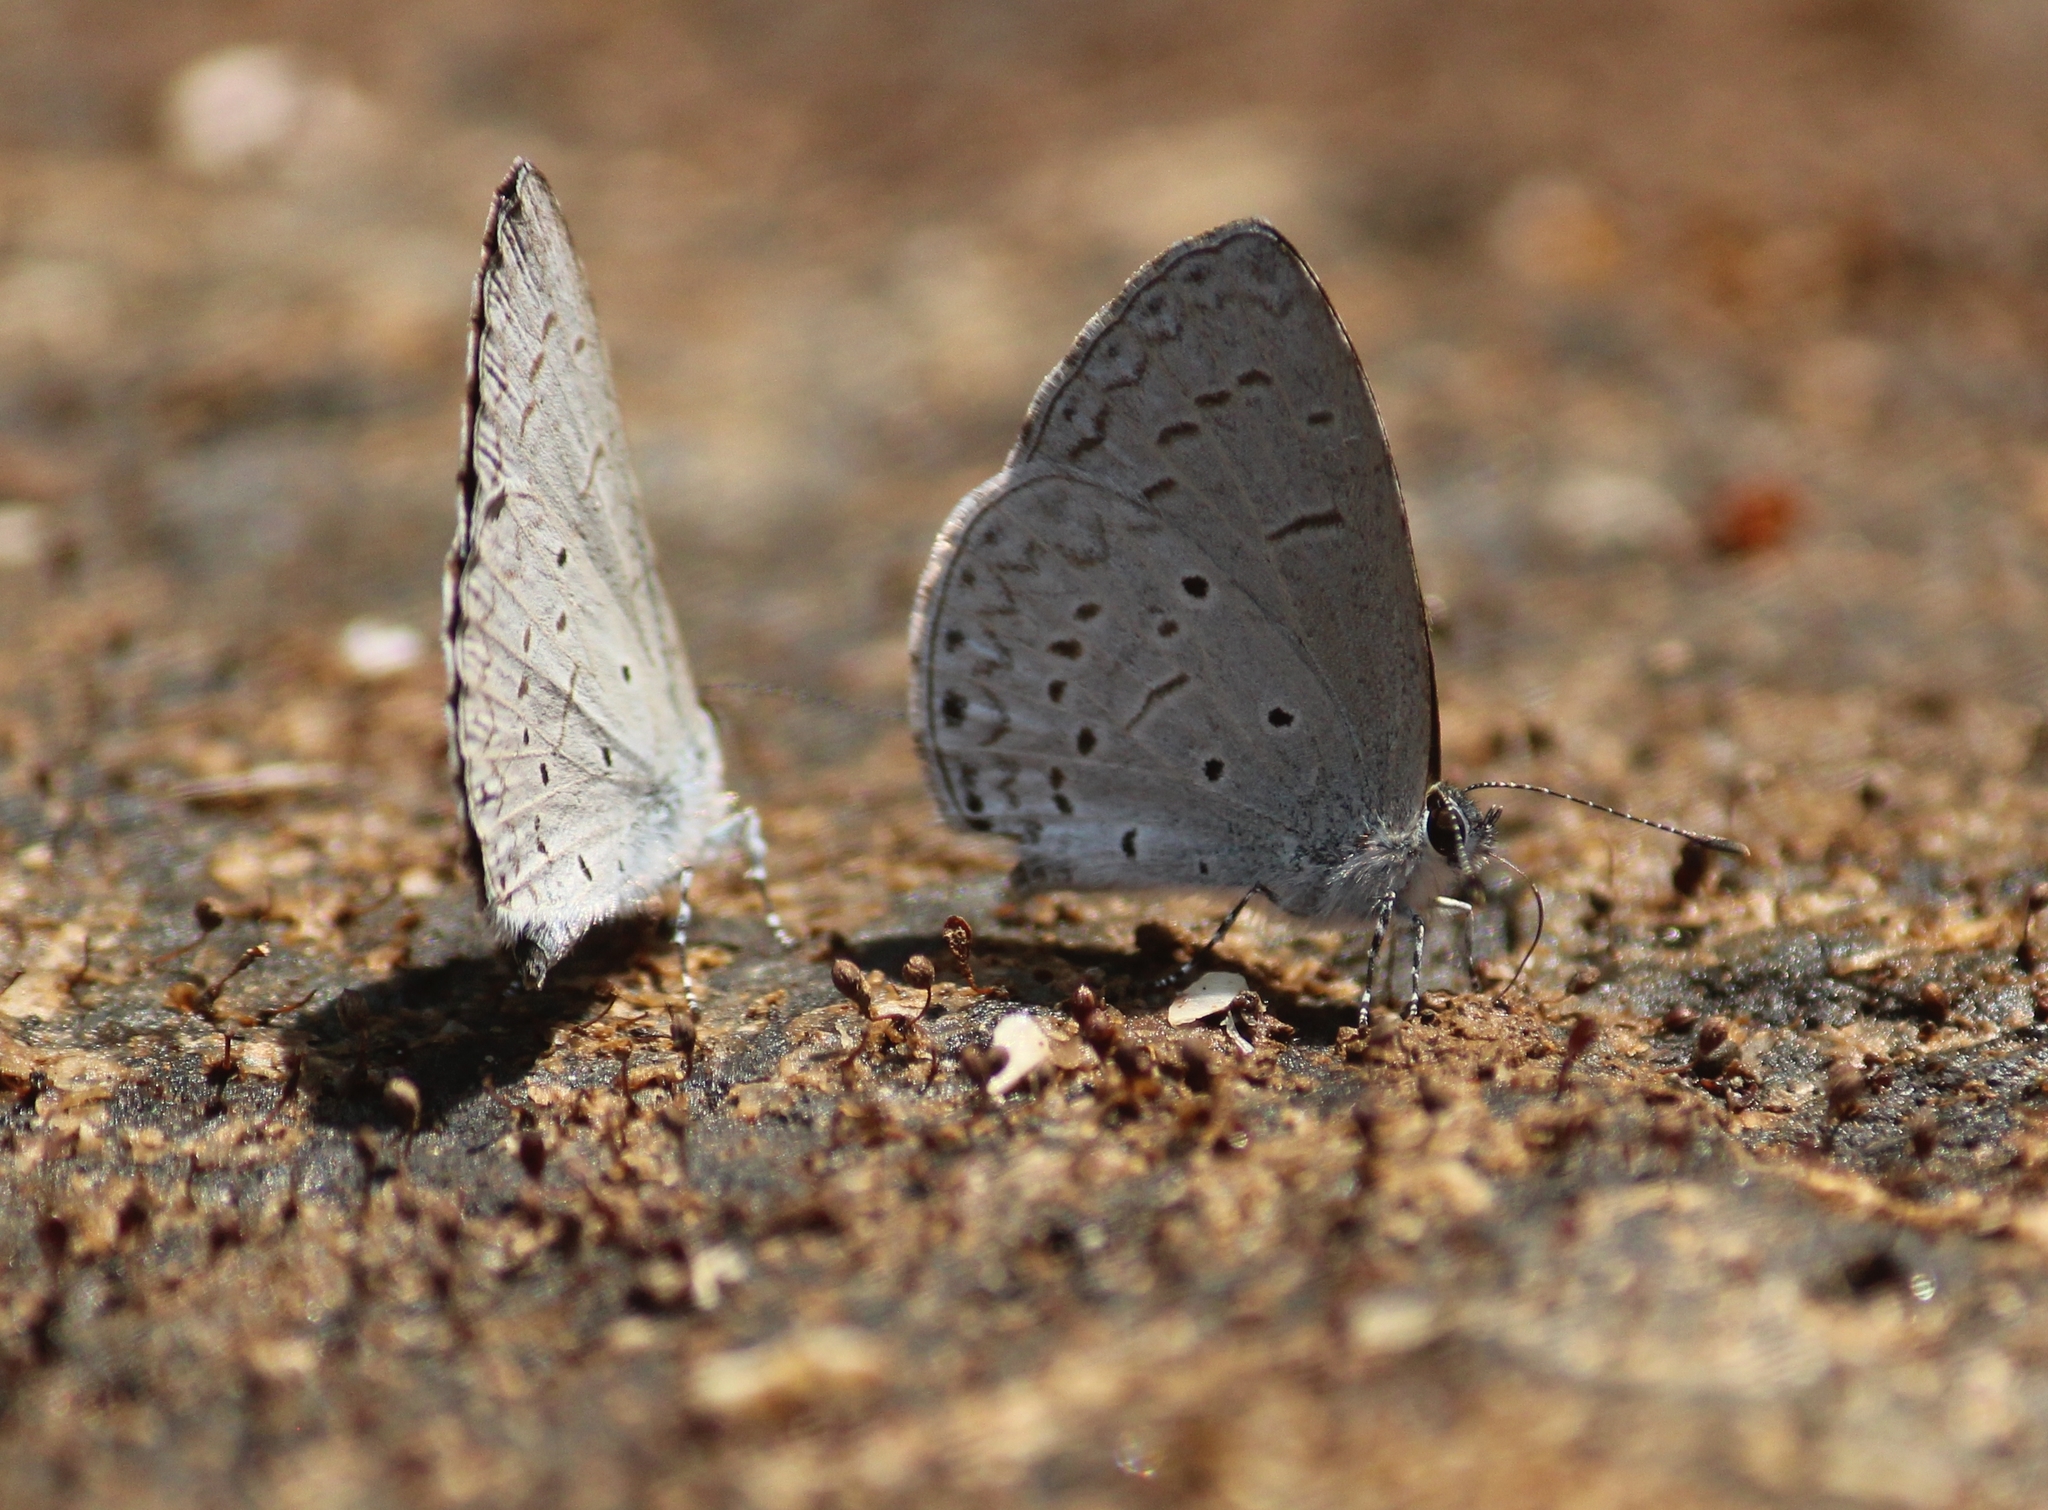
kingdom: Animalia
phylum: Arthropoda
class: Insecta
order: Lepidoptera
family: Lycaenidae
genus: Celastrina
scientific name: Celastrina lavendularis
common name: Plain hedge blue
